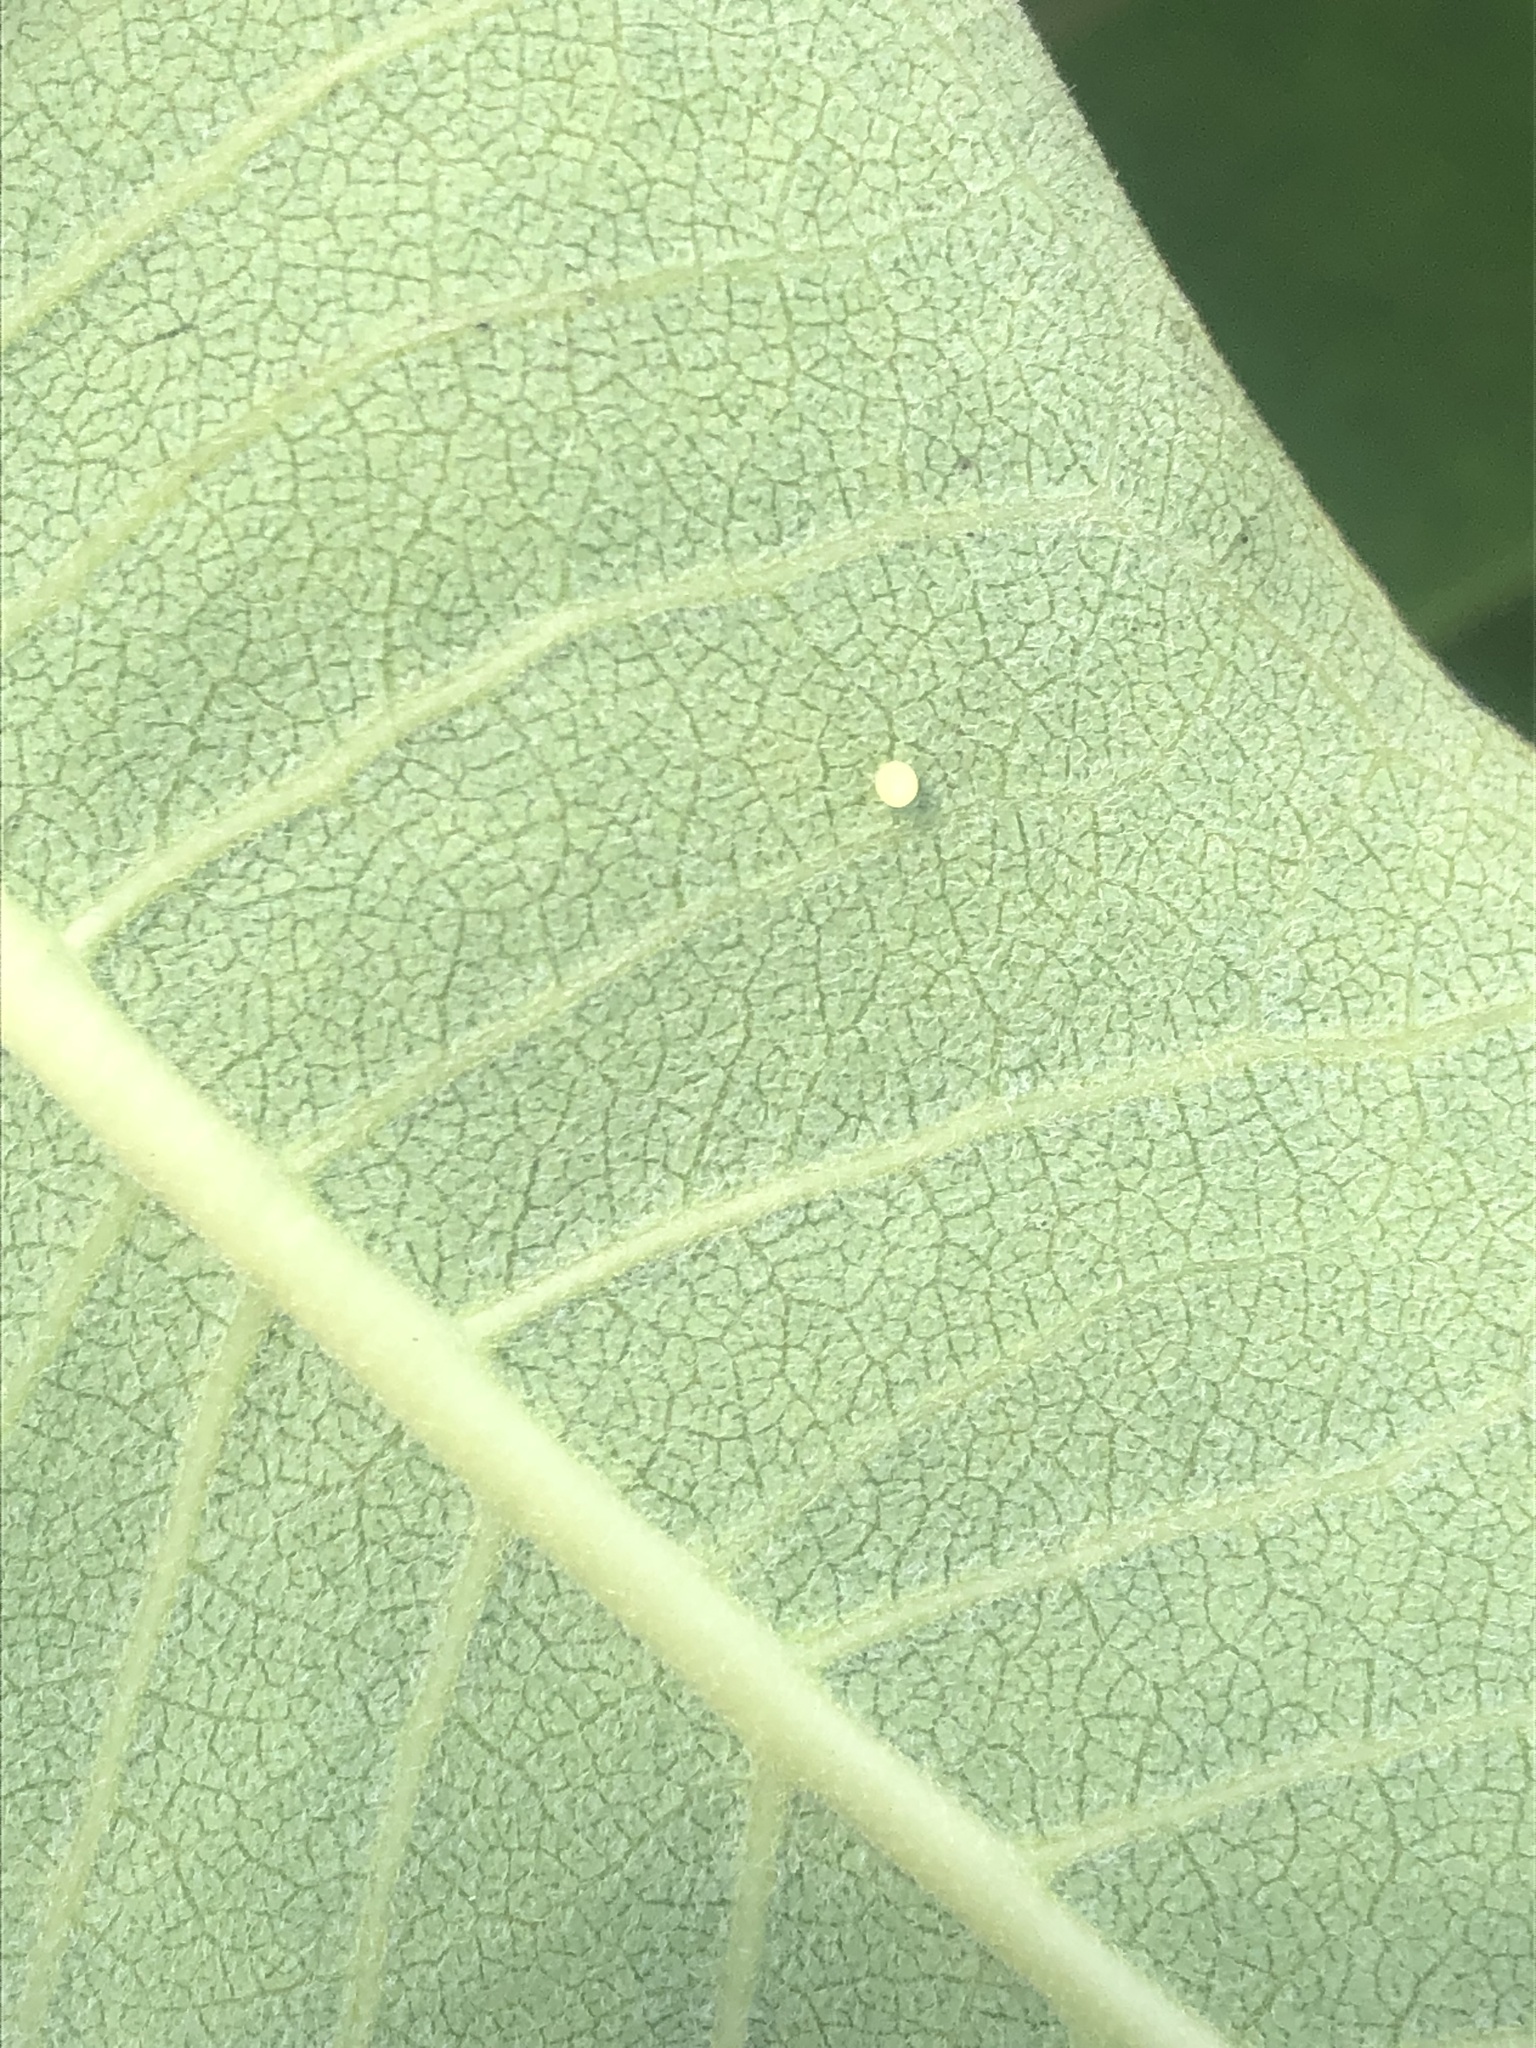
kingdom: Animalia
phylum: Arthropoda
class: Insecta
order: Lepidoptera
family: Nymphalidae
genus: Danaus
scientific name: Danaus plexippus
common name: Monarch
